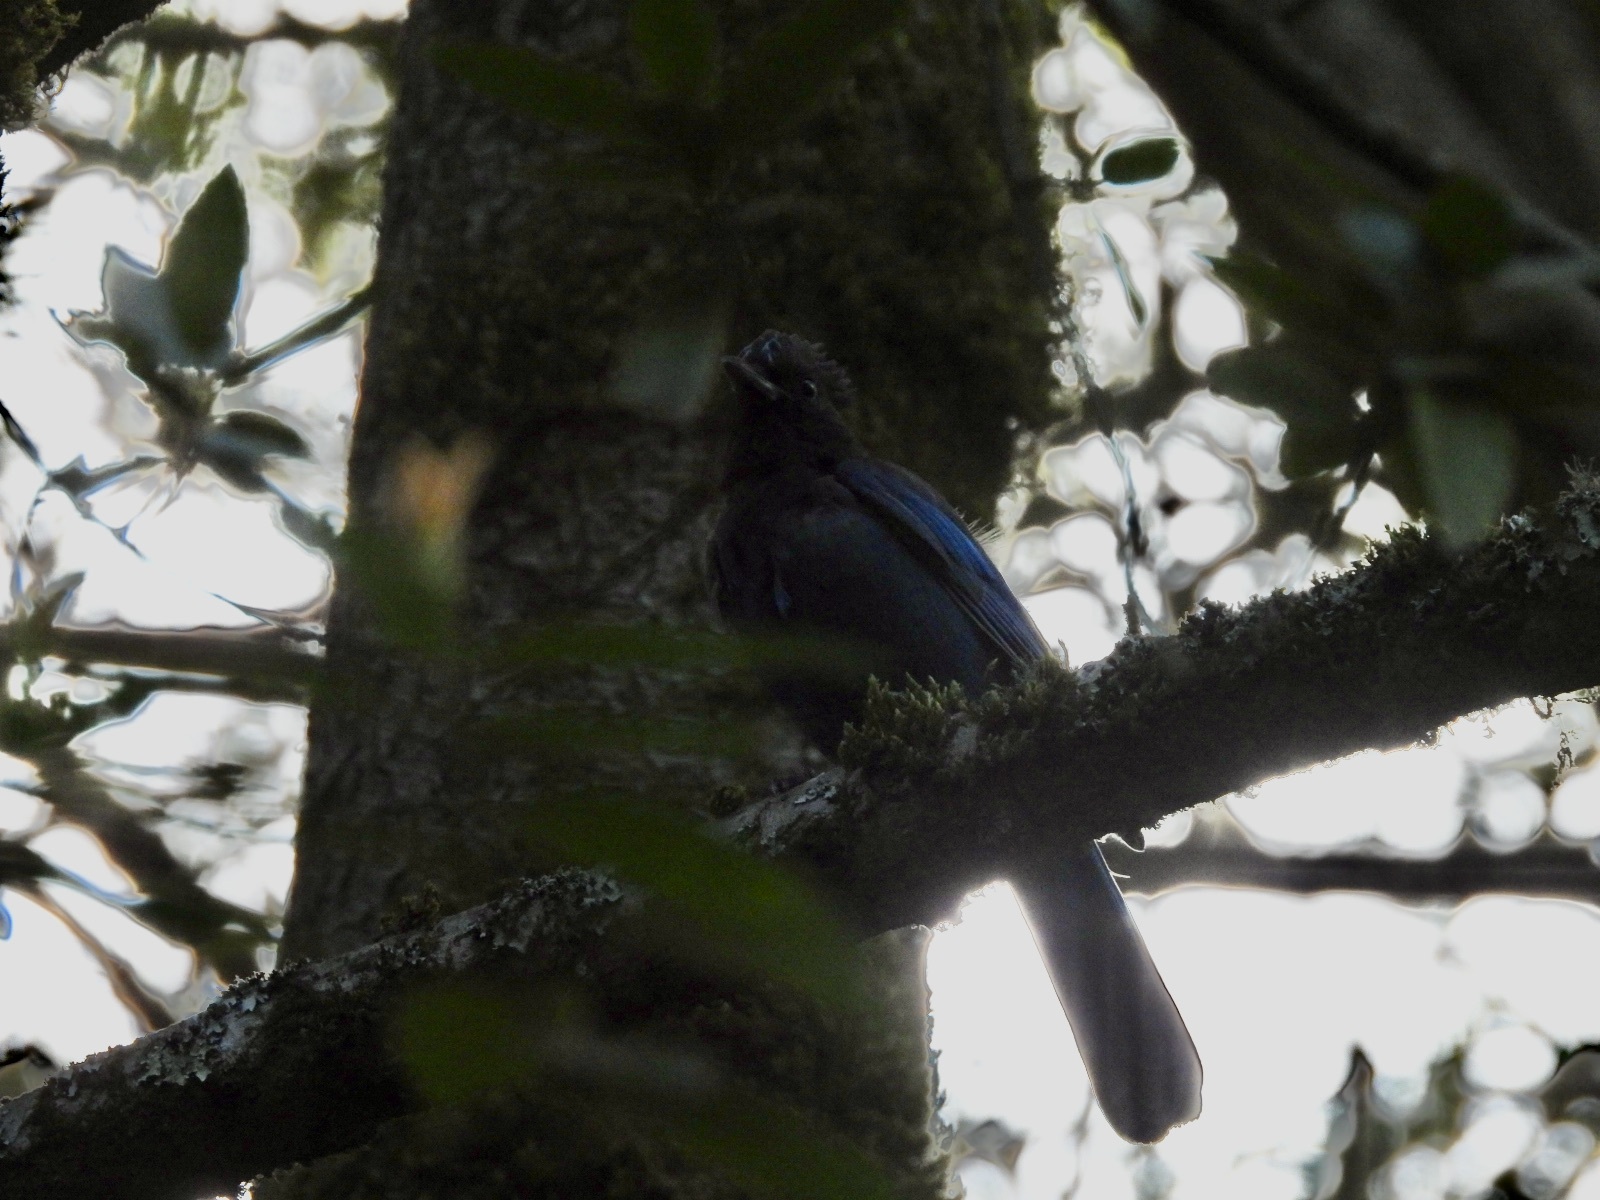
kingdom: Animalia
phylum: Chordata
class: Aves
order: Passeriformes
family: Corvidae
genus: Cyanocitta
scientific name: Cyanocitta stelleri
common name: Steller's jay
